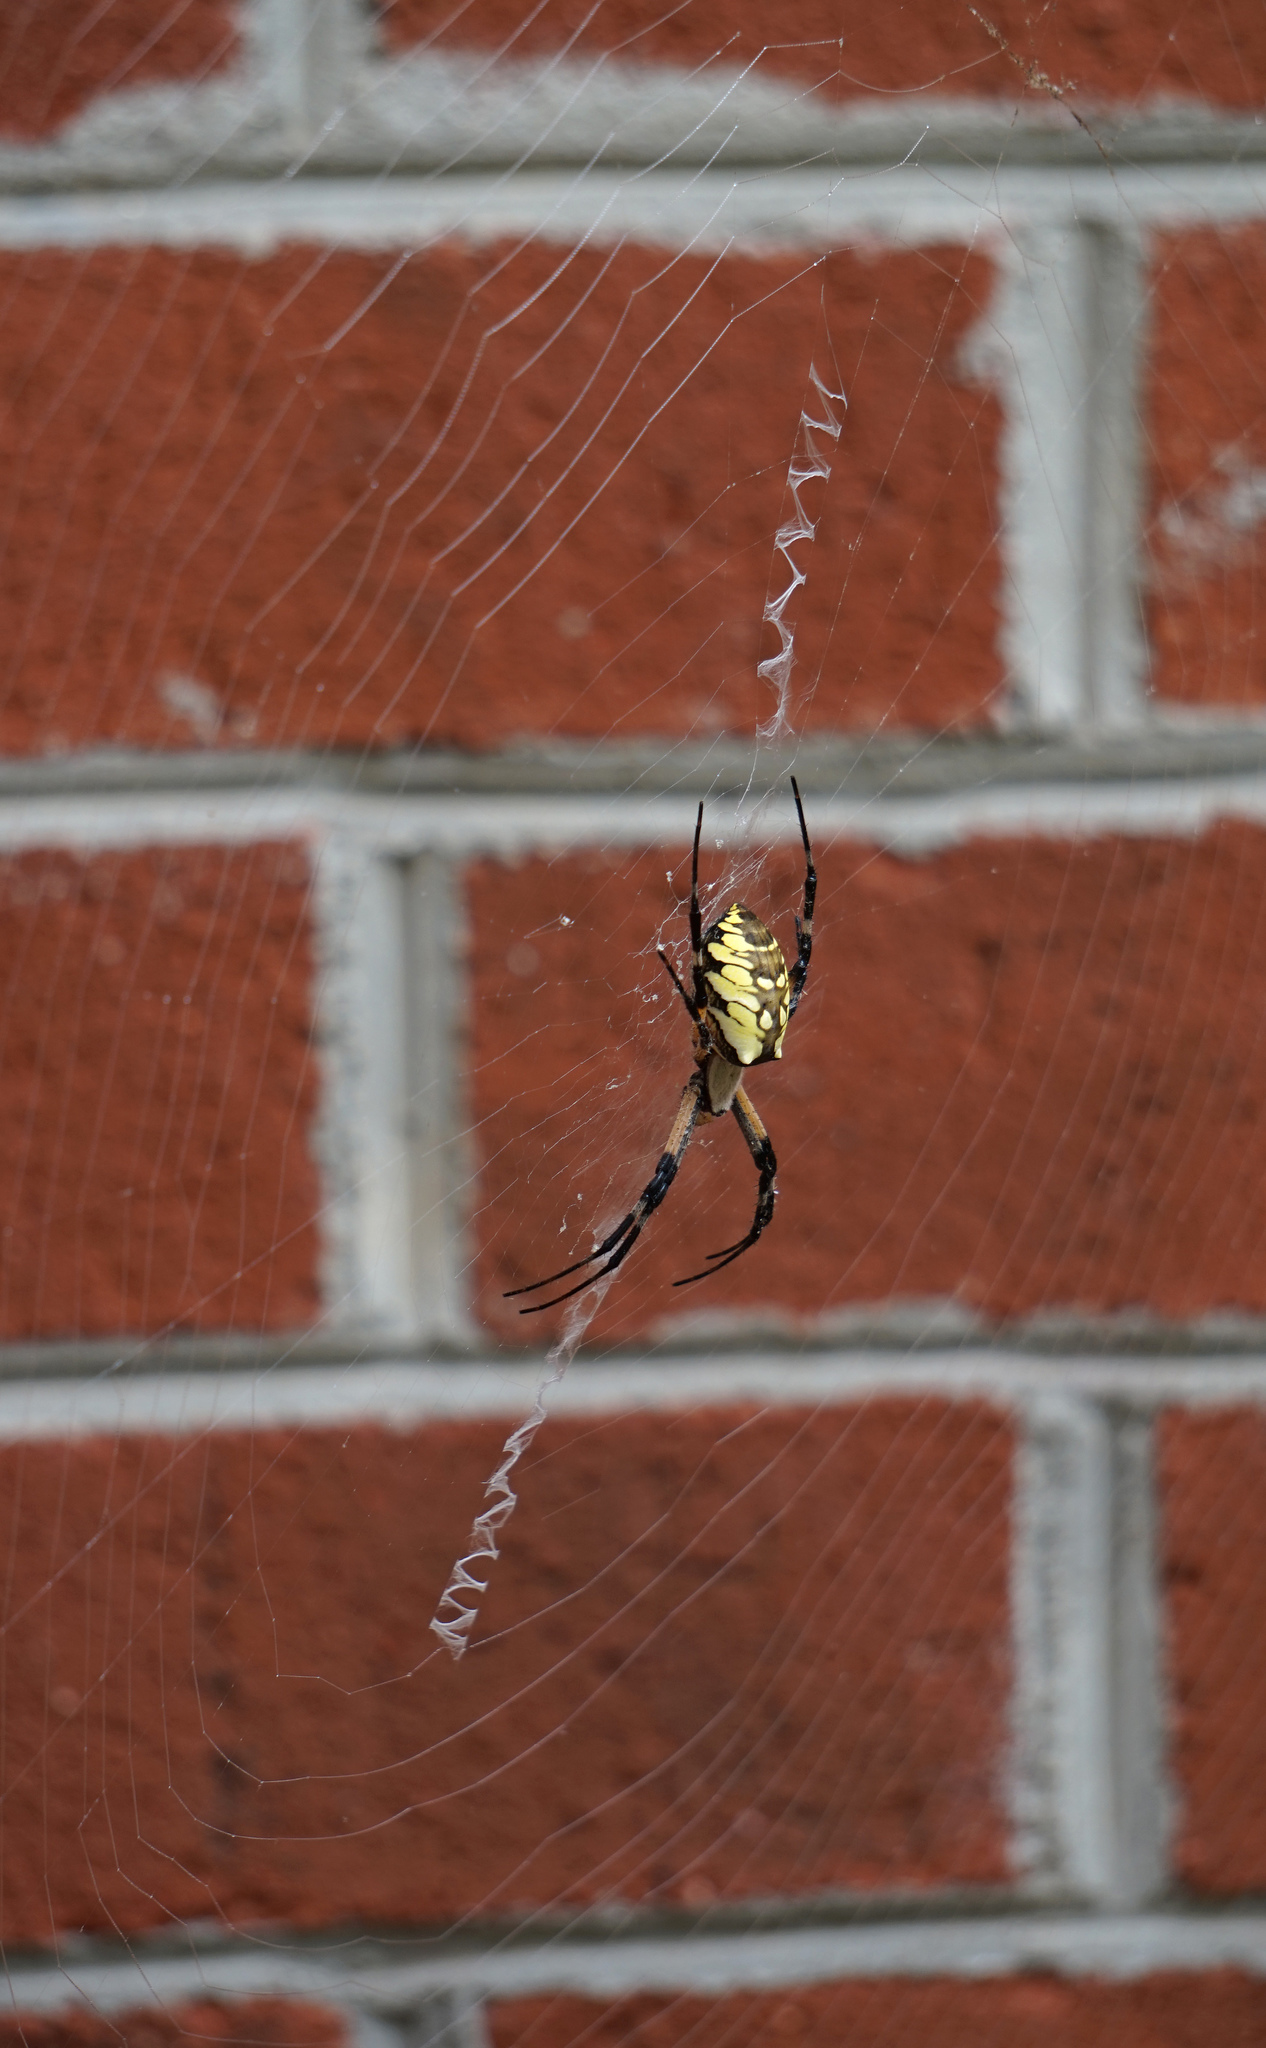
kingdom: Animalia
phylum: Arthropoda
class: Arachnida
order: Araneae
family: Araneidae
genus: Argiope
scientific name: Argiope aurantia
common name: Orb weavers
